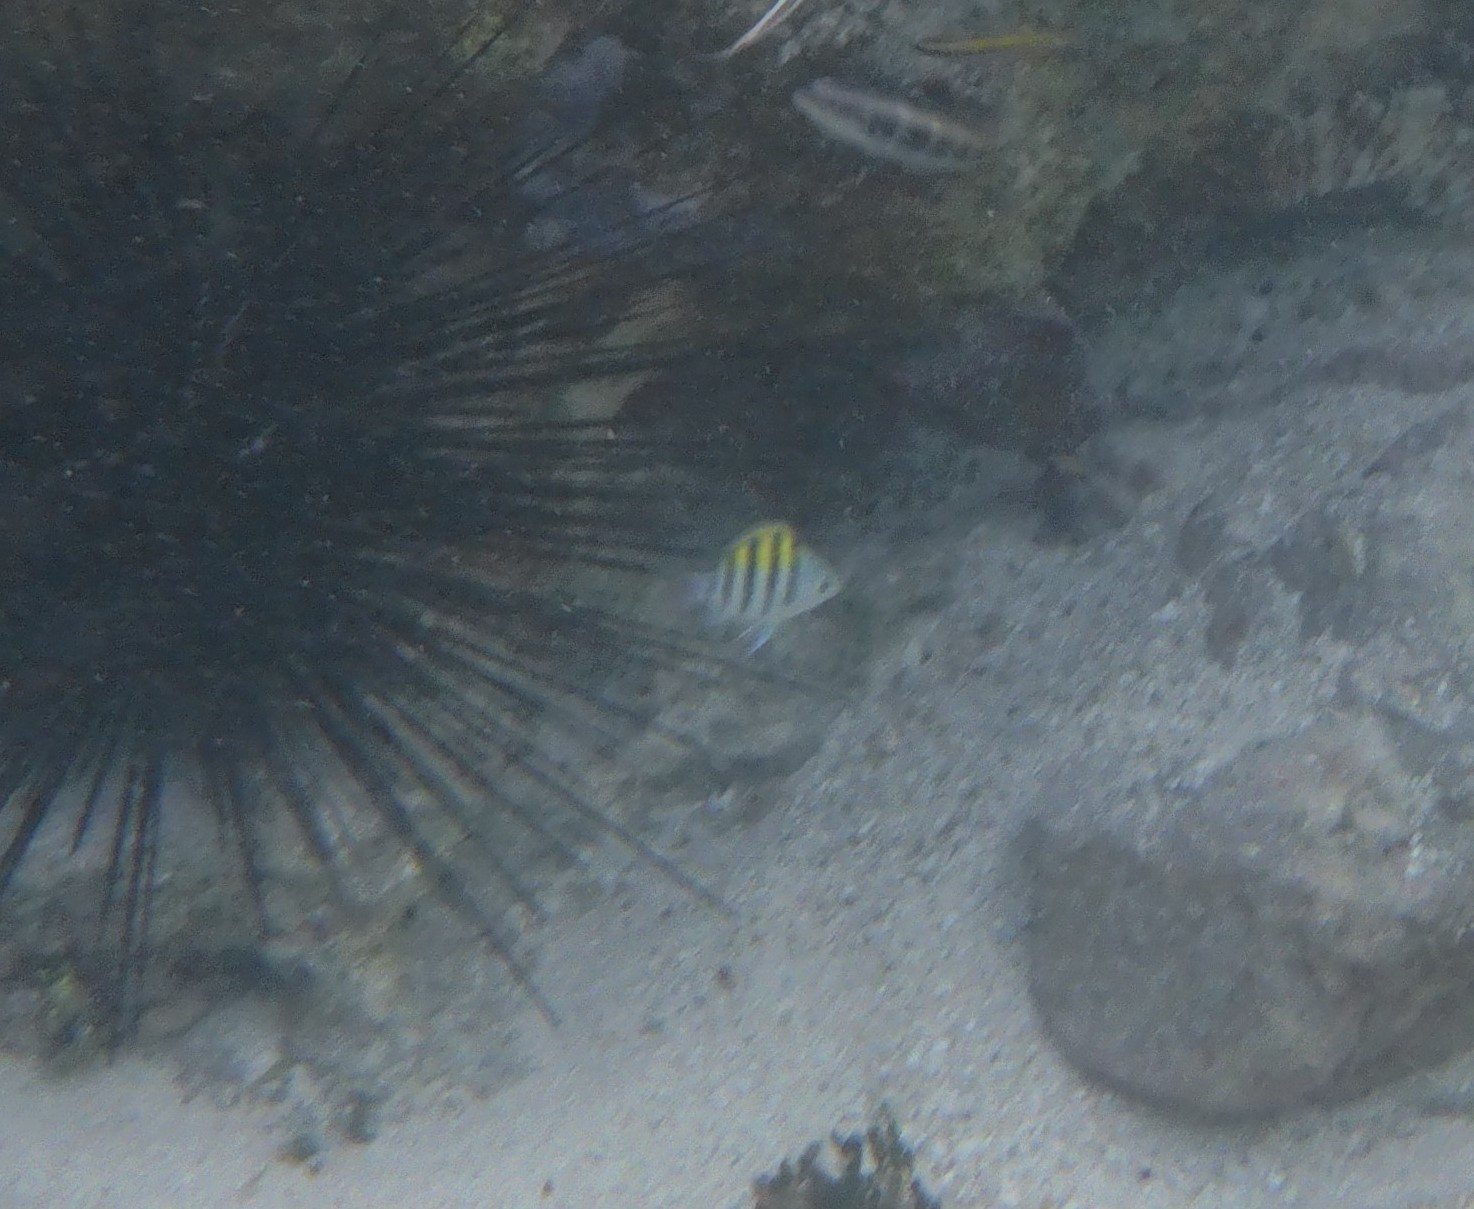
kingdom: Animalia
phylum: Chordata
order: Perciformes
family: Pomacentridae
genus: Abudefduf
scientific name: Abudefduf saxatilis
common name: Sergeant major
